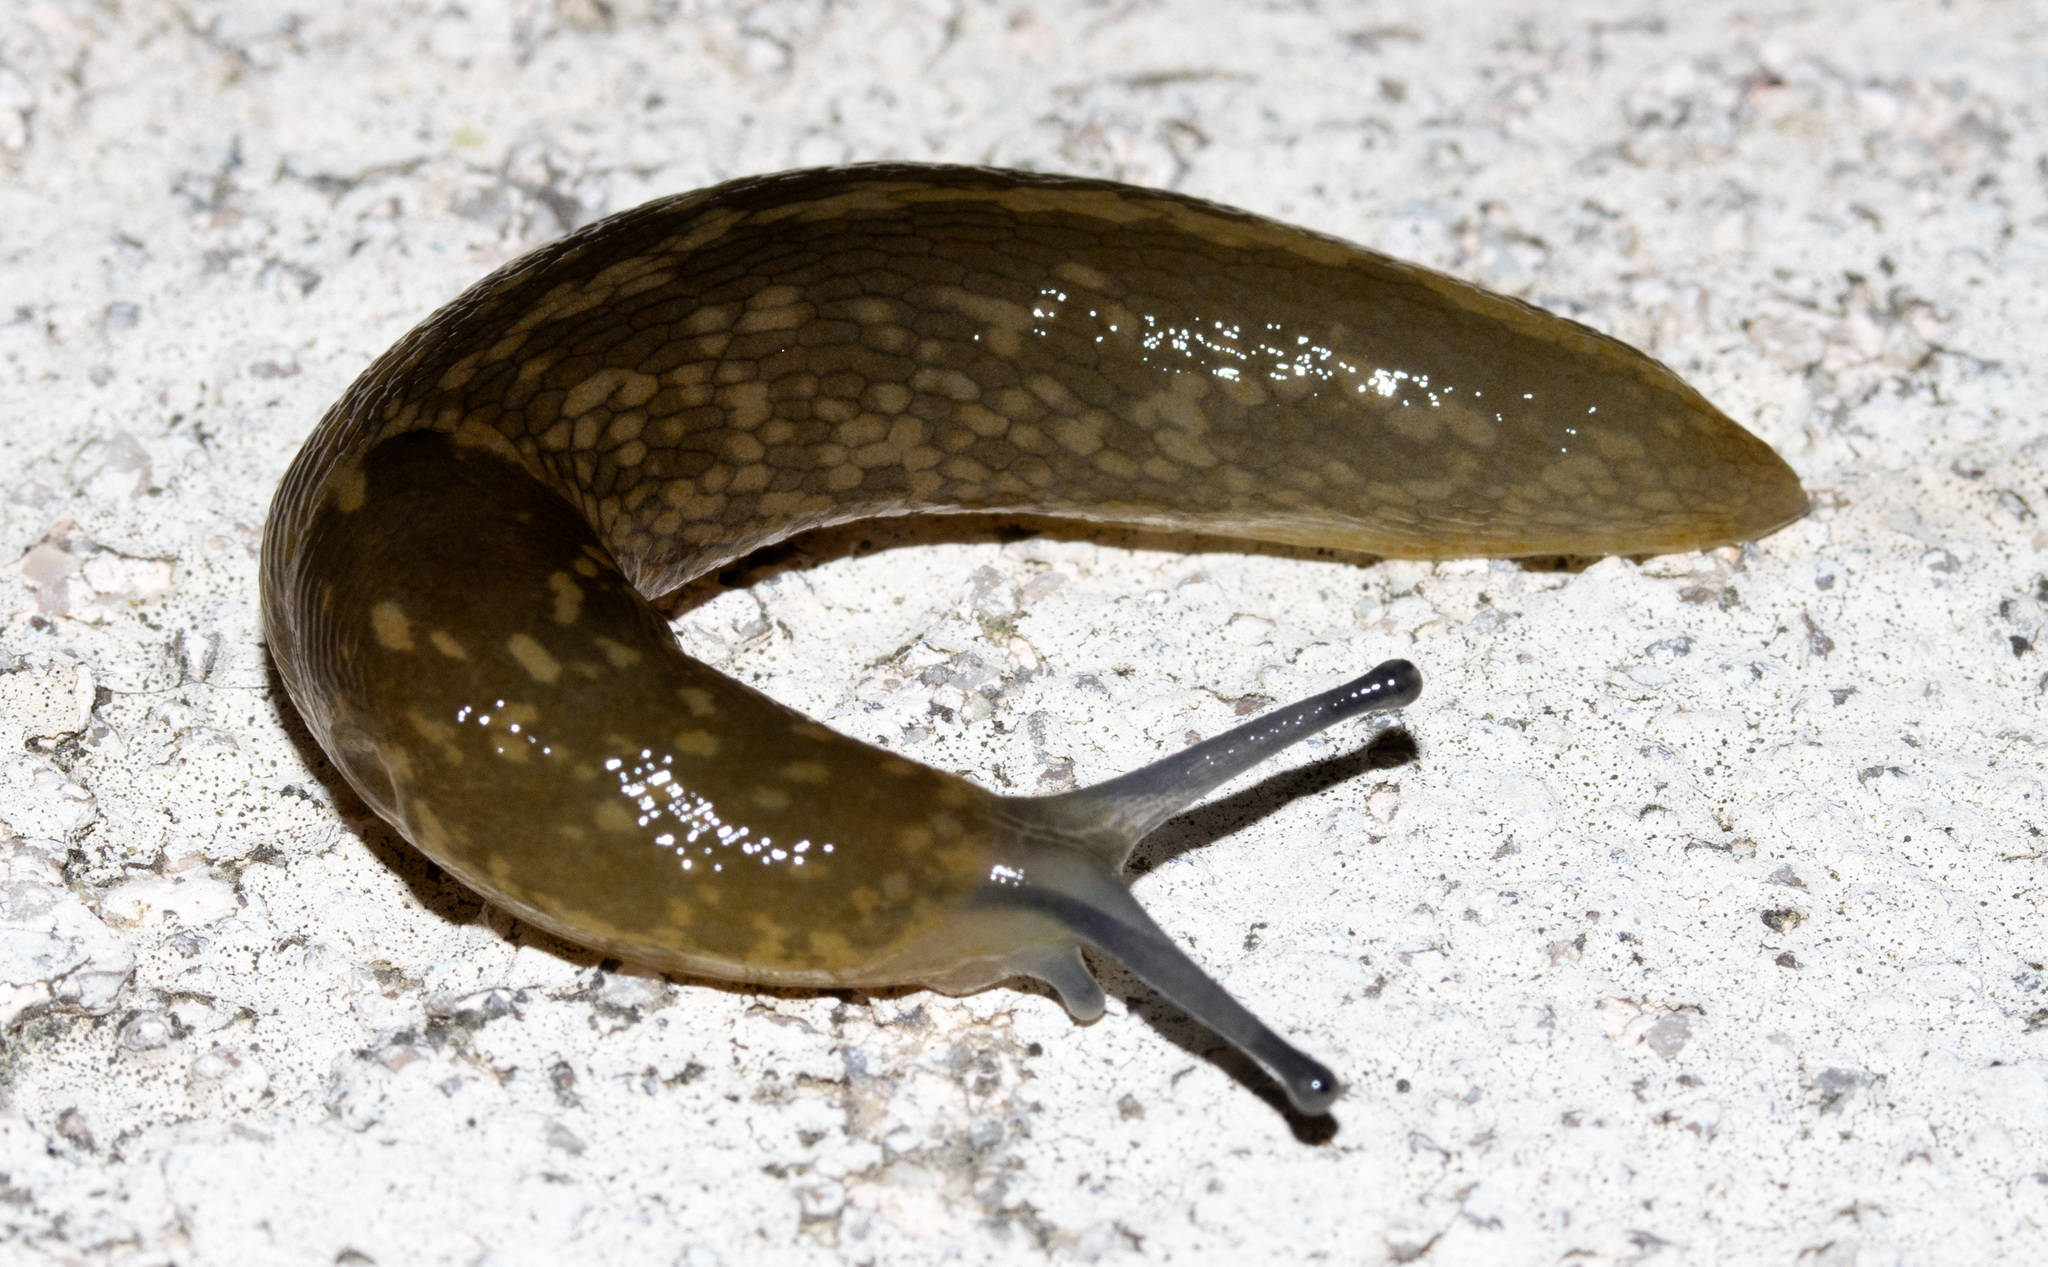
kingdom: Animalia
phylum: Mollusca
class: Gastropoda
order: Stylommatophora
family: Limacidae
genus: Limacus
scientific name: Limacus flavus
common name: Yellow gardenslug
